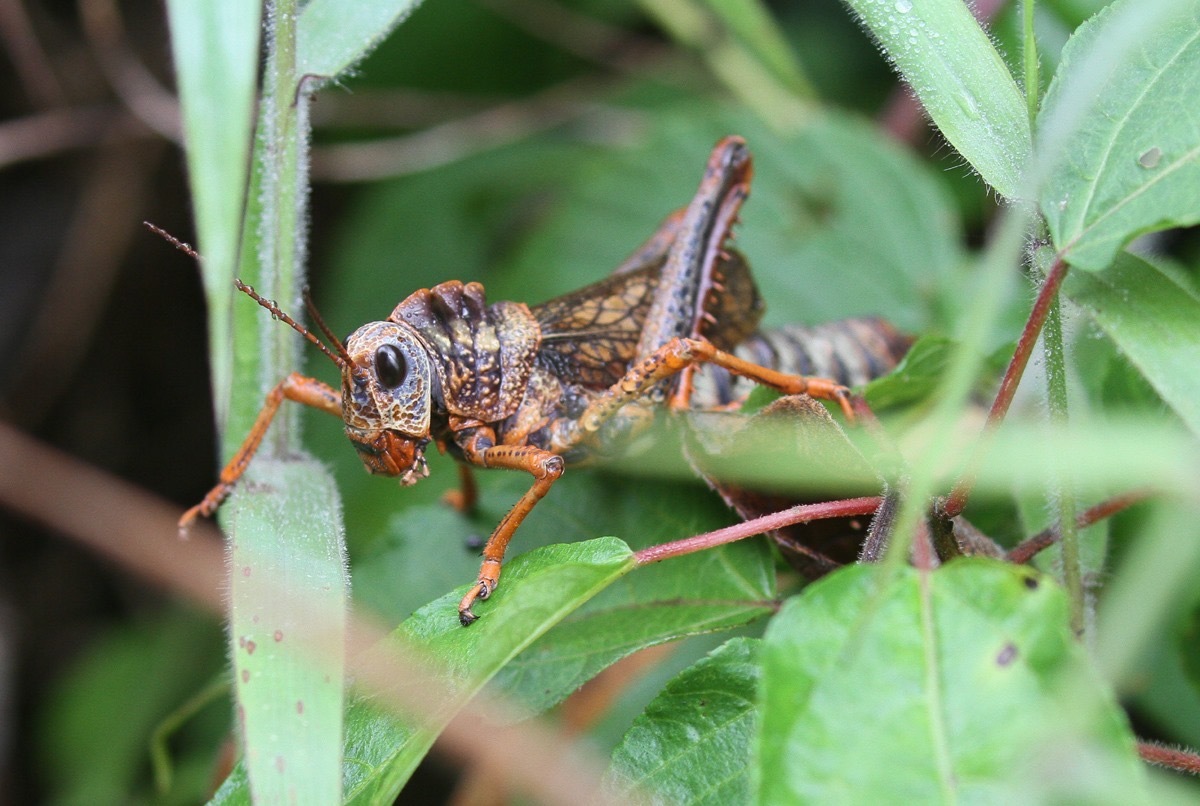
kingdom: Animalia
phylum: Arthropoda
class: Insecta
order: Orthoptera
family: Romaleidae
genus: Thrasyderes
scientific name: Thrasyderes leprosus
